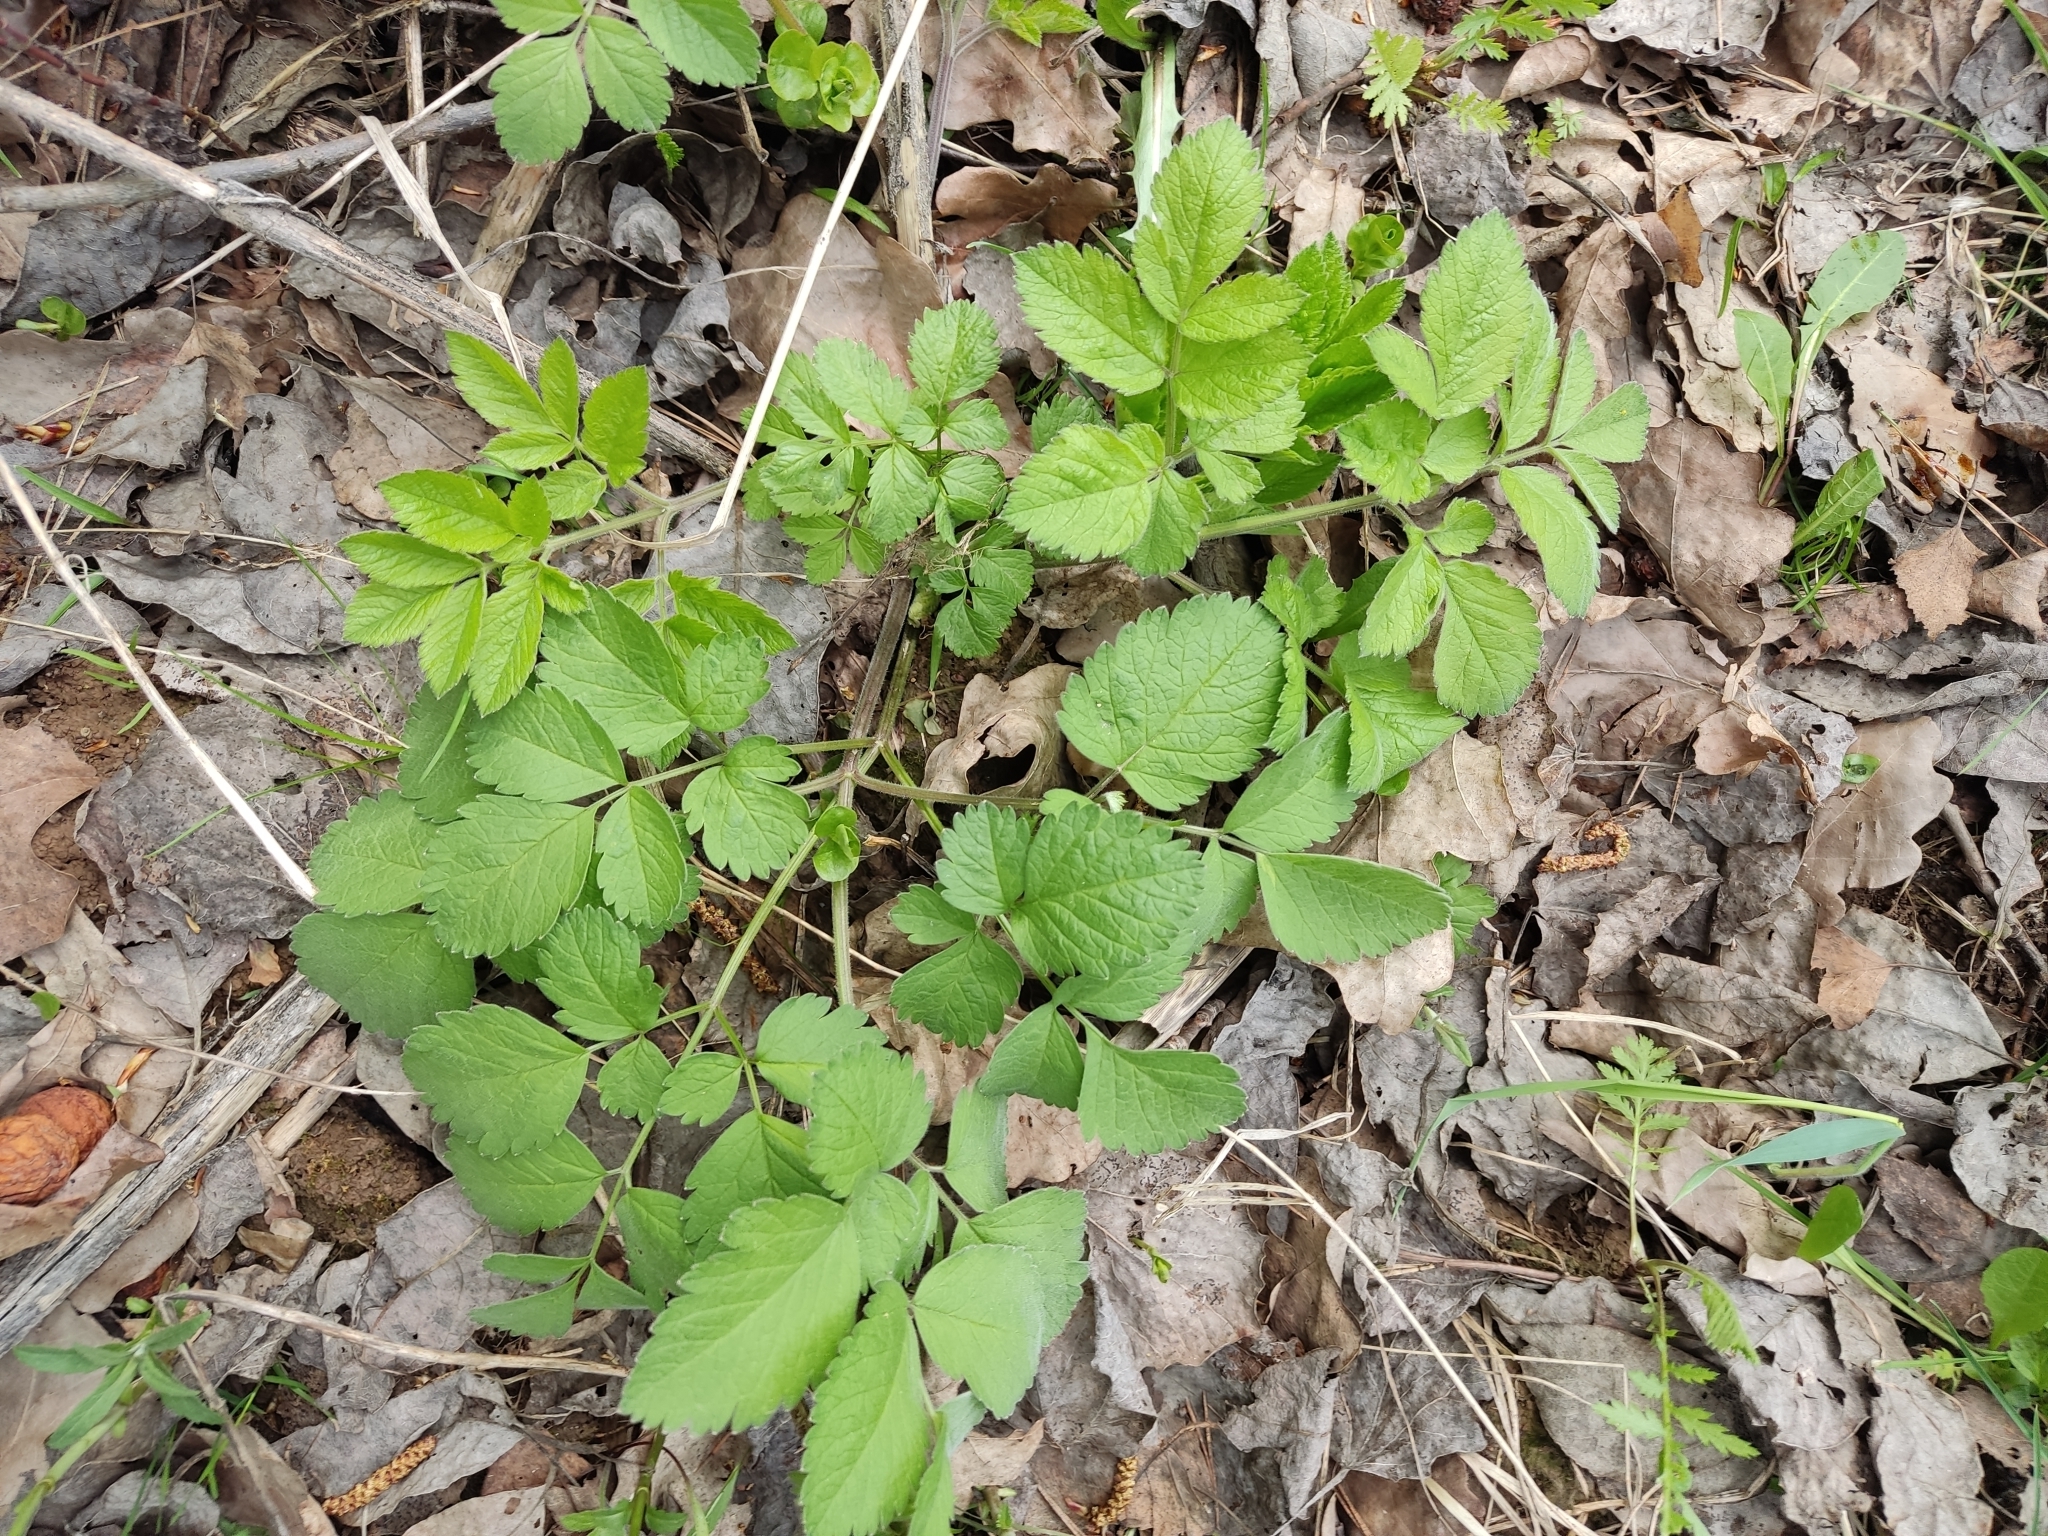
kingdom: Plantae
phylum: Tracheophyta
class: Magnoliopsida
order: Apiales
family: Apiaceae
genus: Chaerophyllum
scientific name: Chaerophyllum aromaticum
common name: Broadleaf chervil
